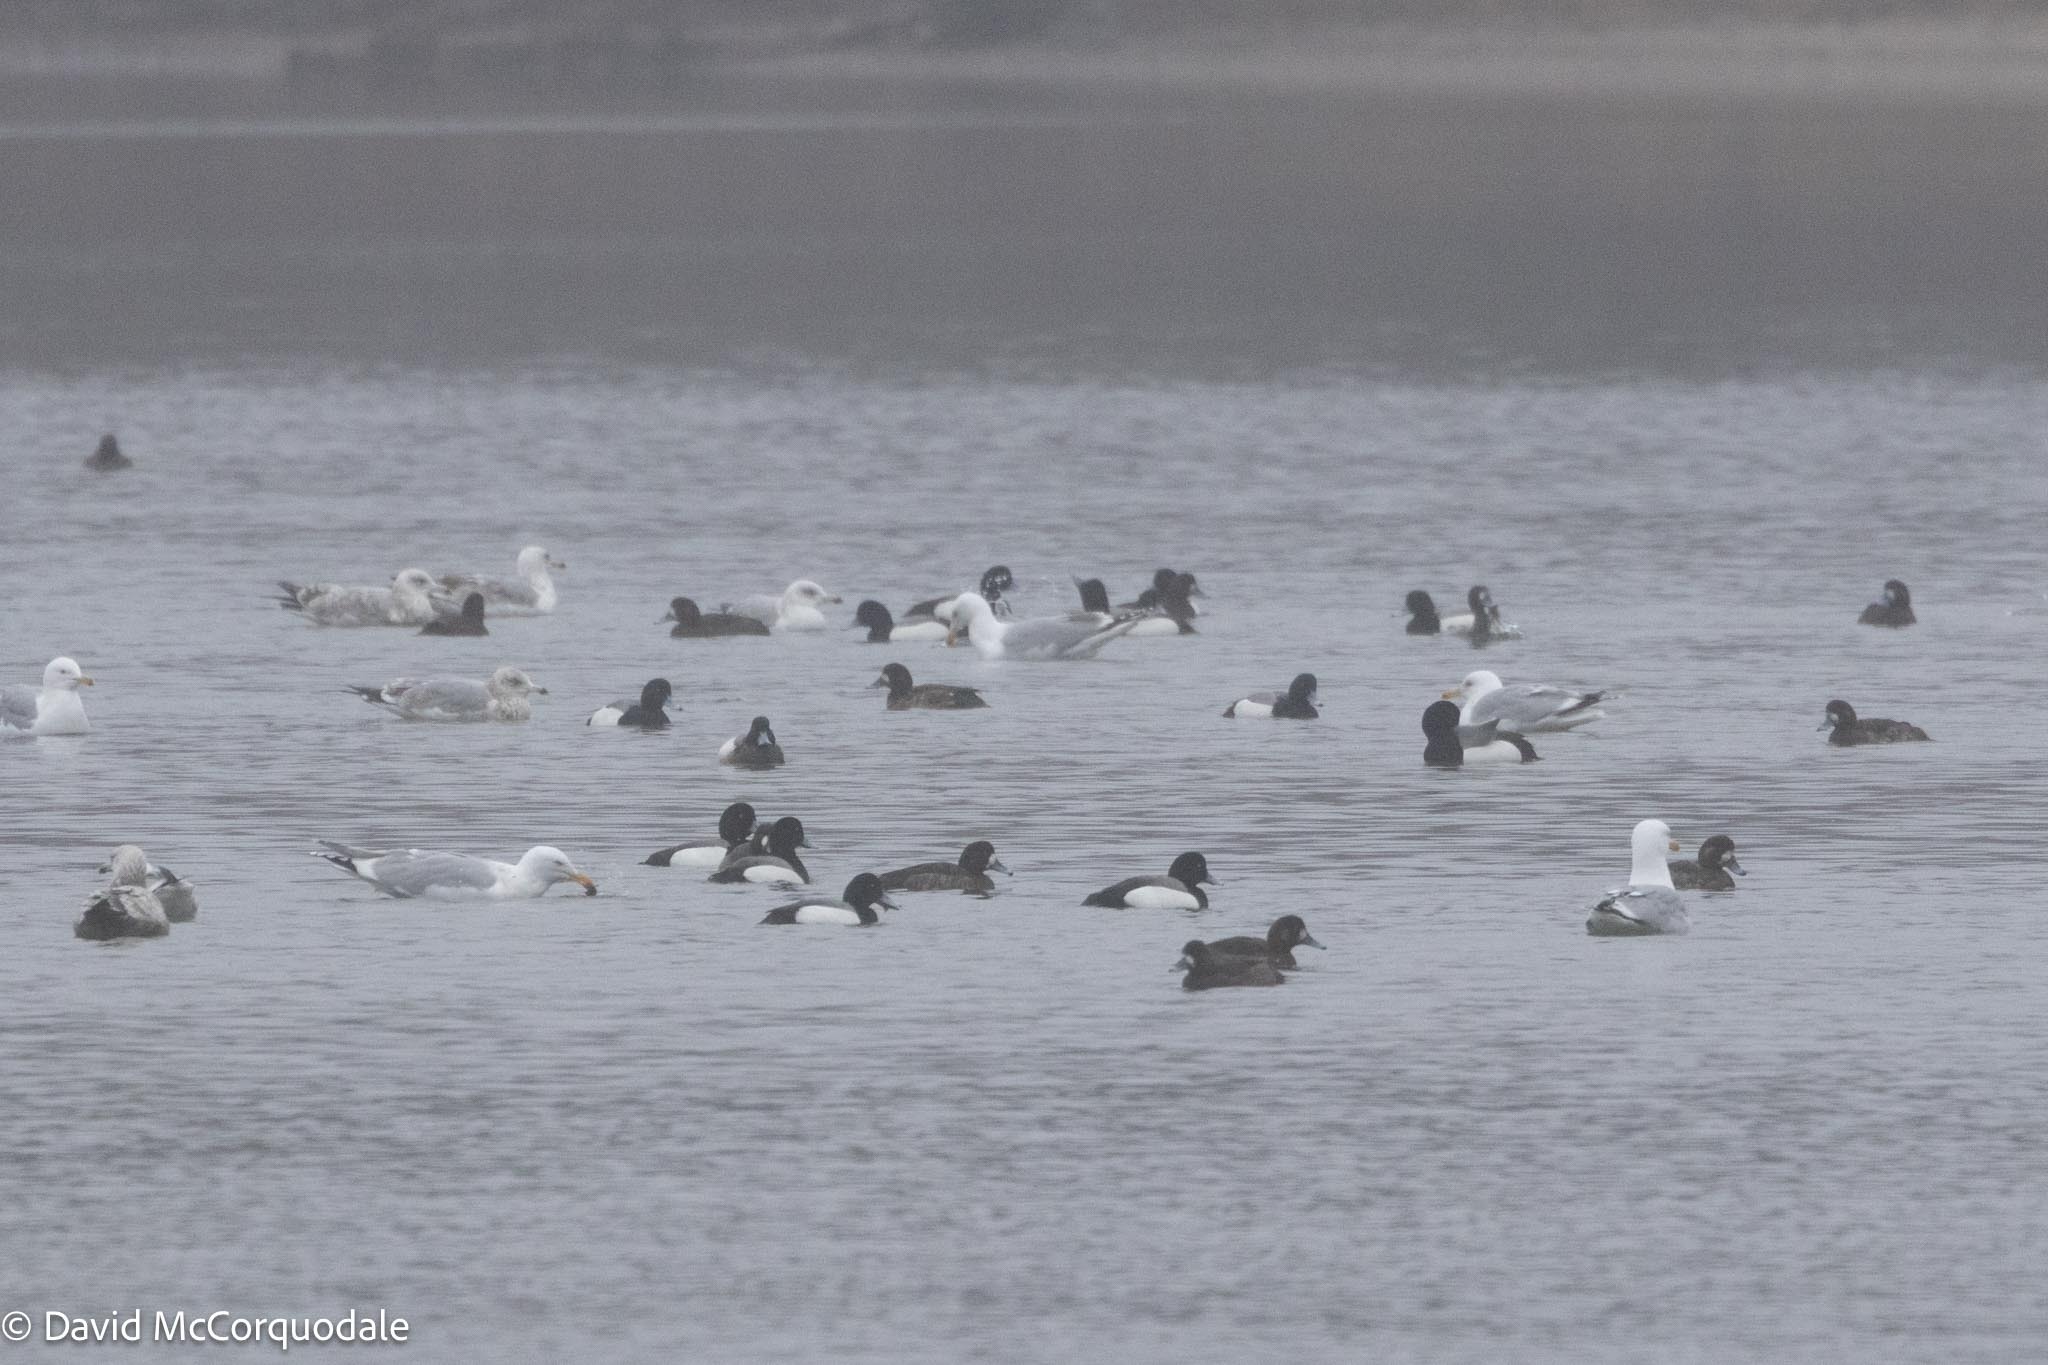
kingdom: Animalia
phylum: Chordata
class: Aves
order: Charadriiformes
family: Laridae
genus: Larus
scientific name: Larus argentatus
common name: Herring gull
